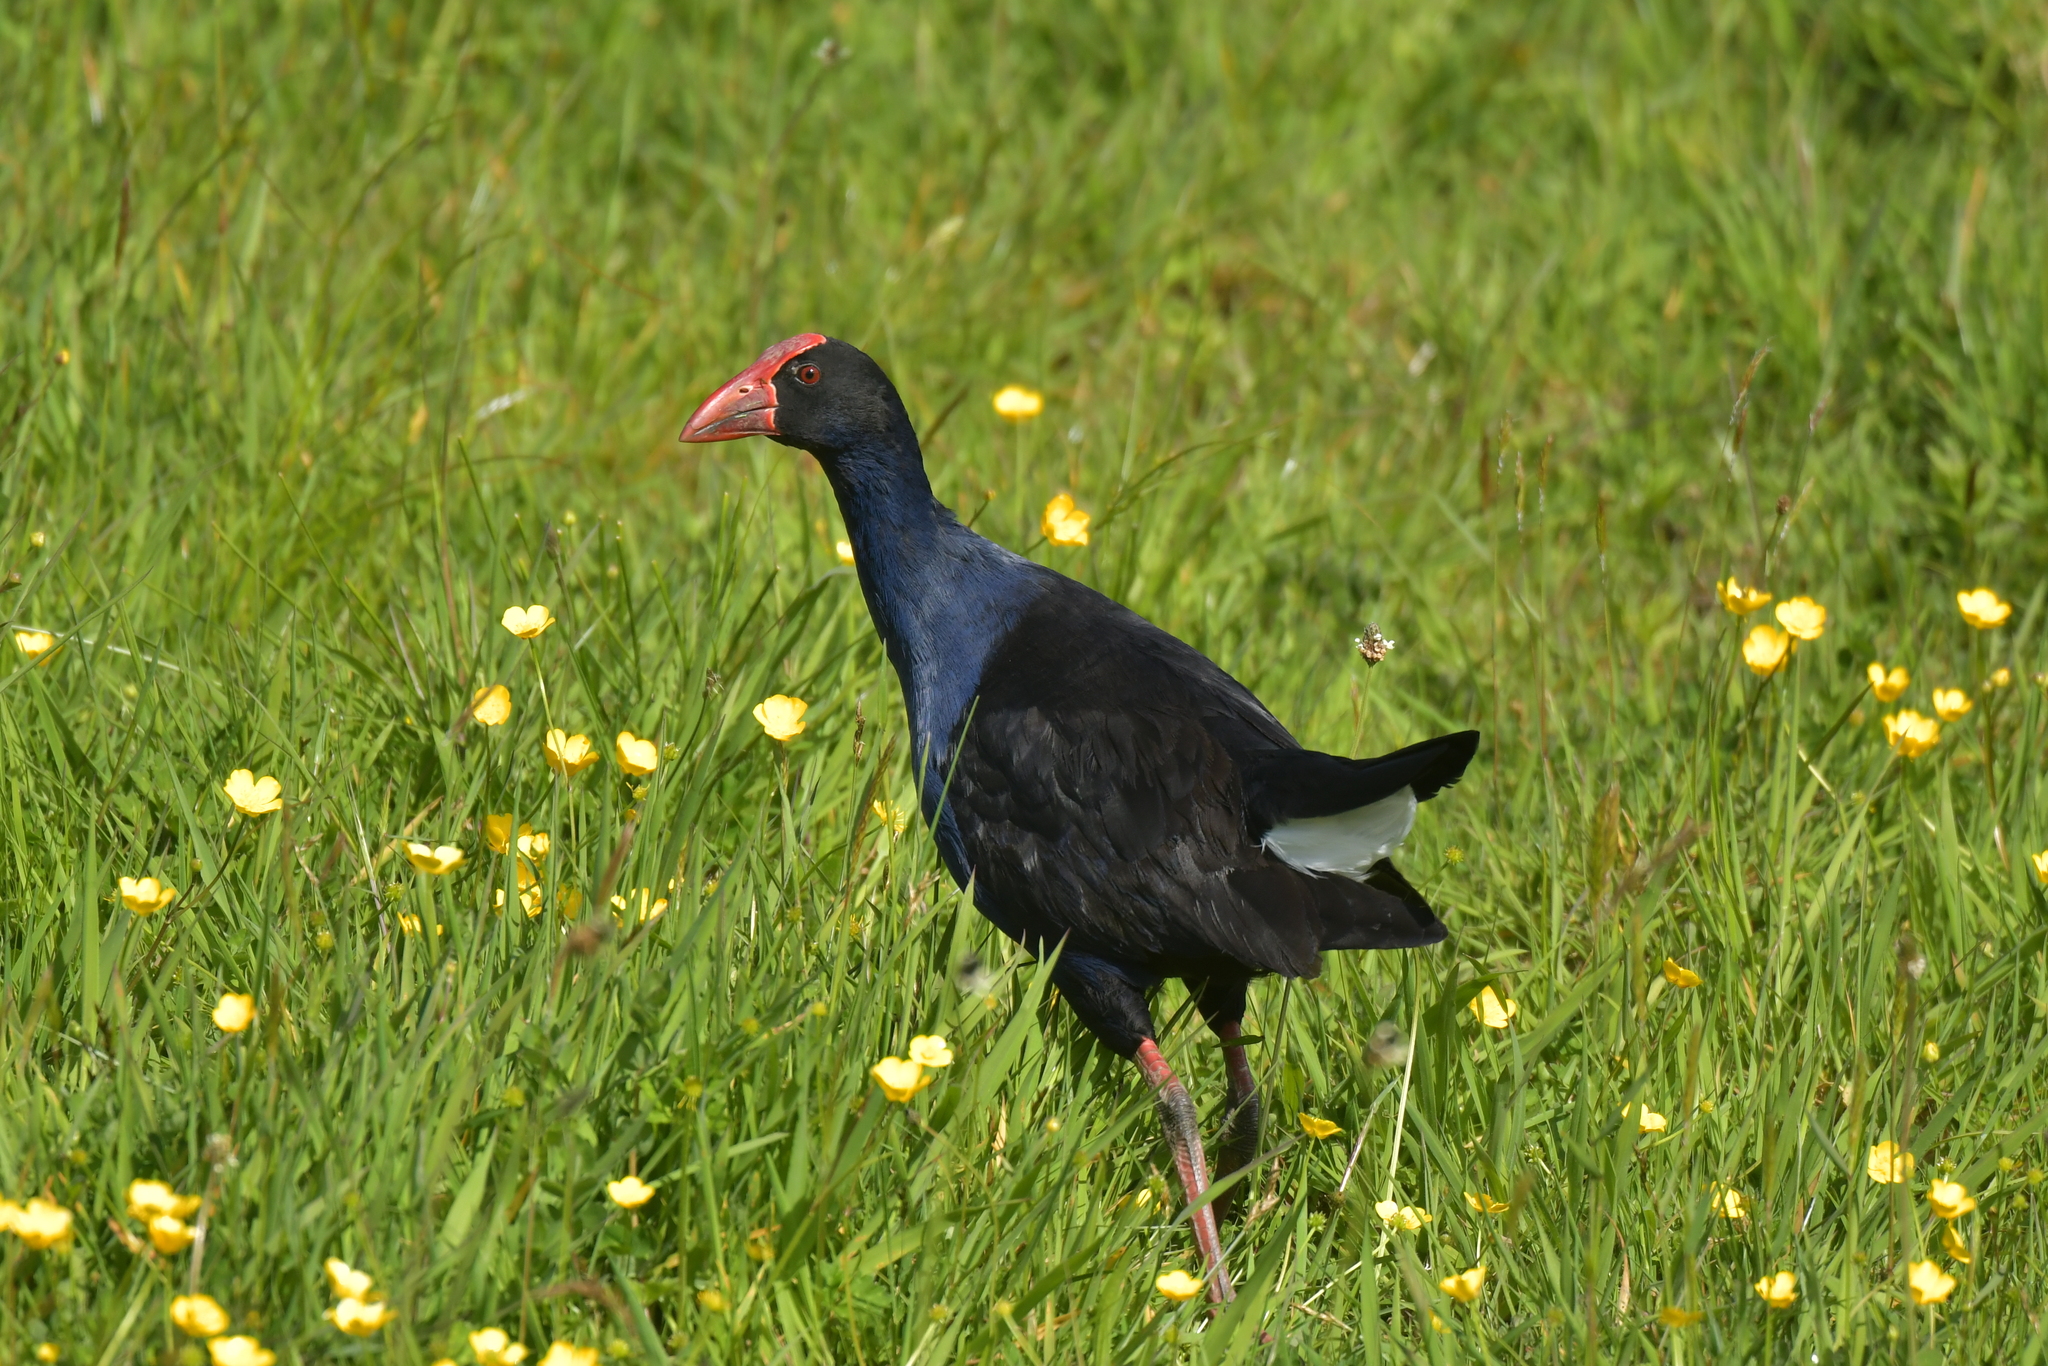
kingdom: Animalia
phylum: Chordata
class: Aves
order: Gruiformes
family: Rallidae
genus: Porphyrio
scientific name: Porphyrio melanotus
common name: Australasian swamphen
